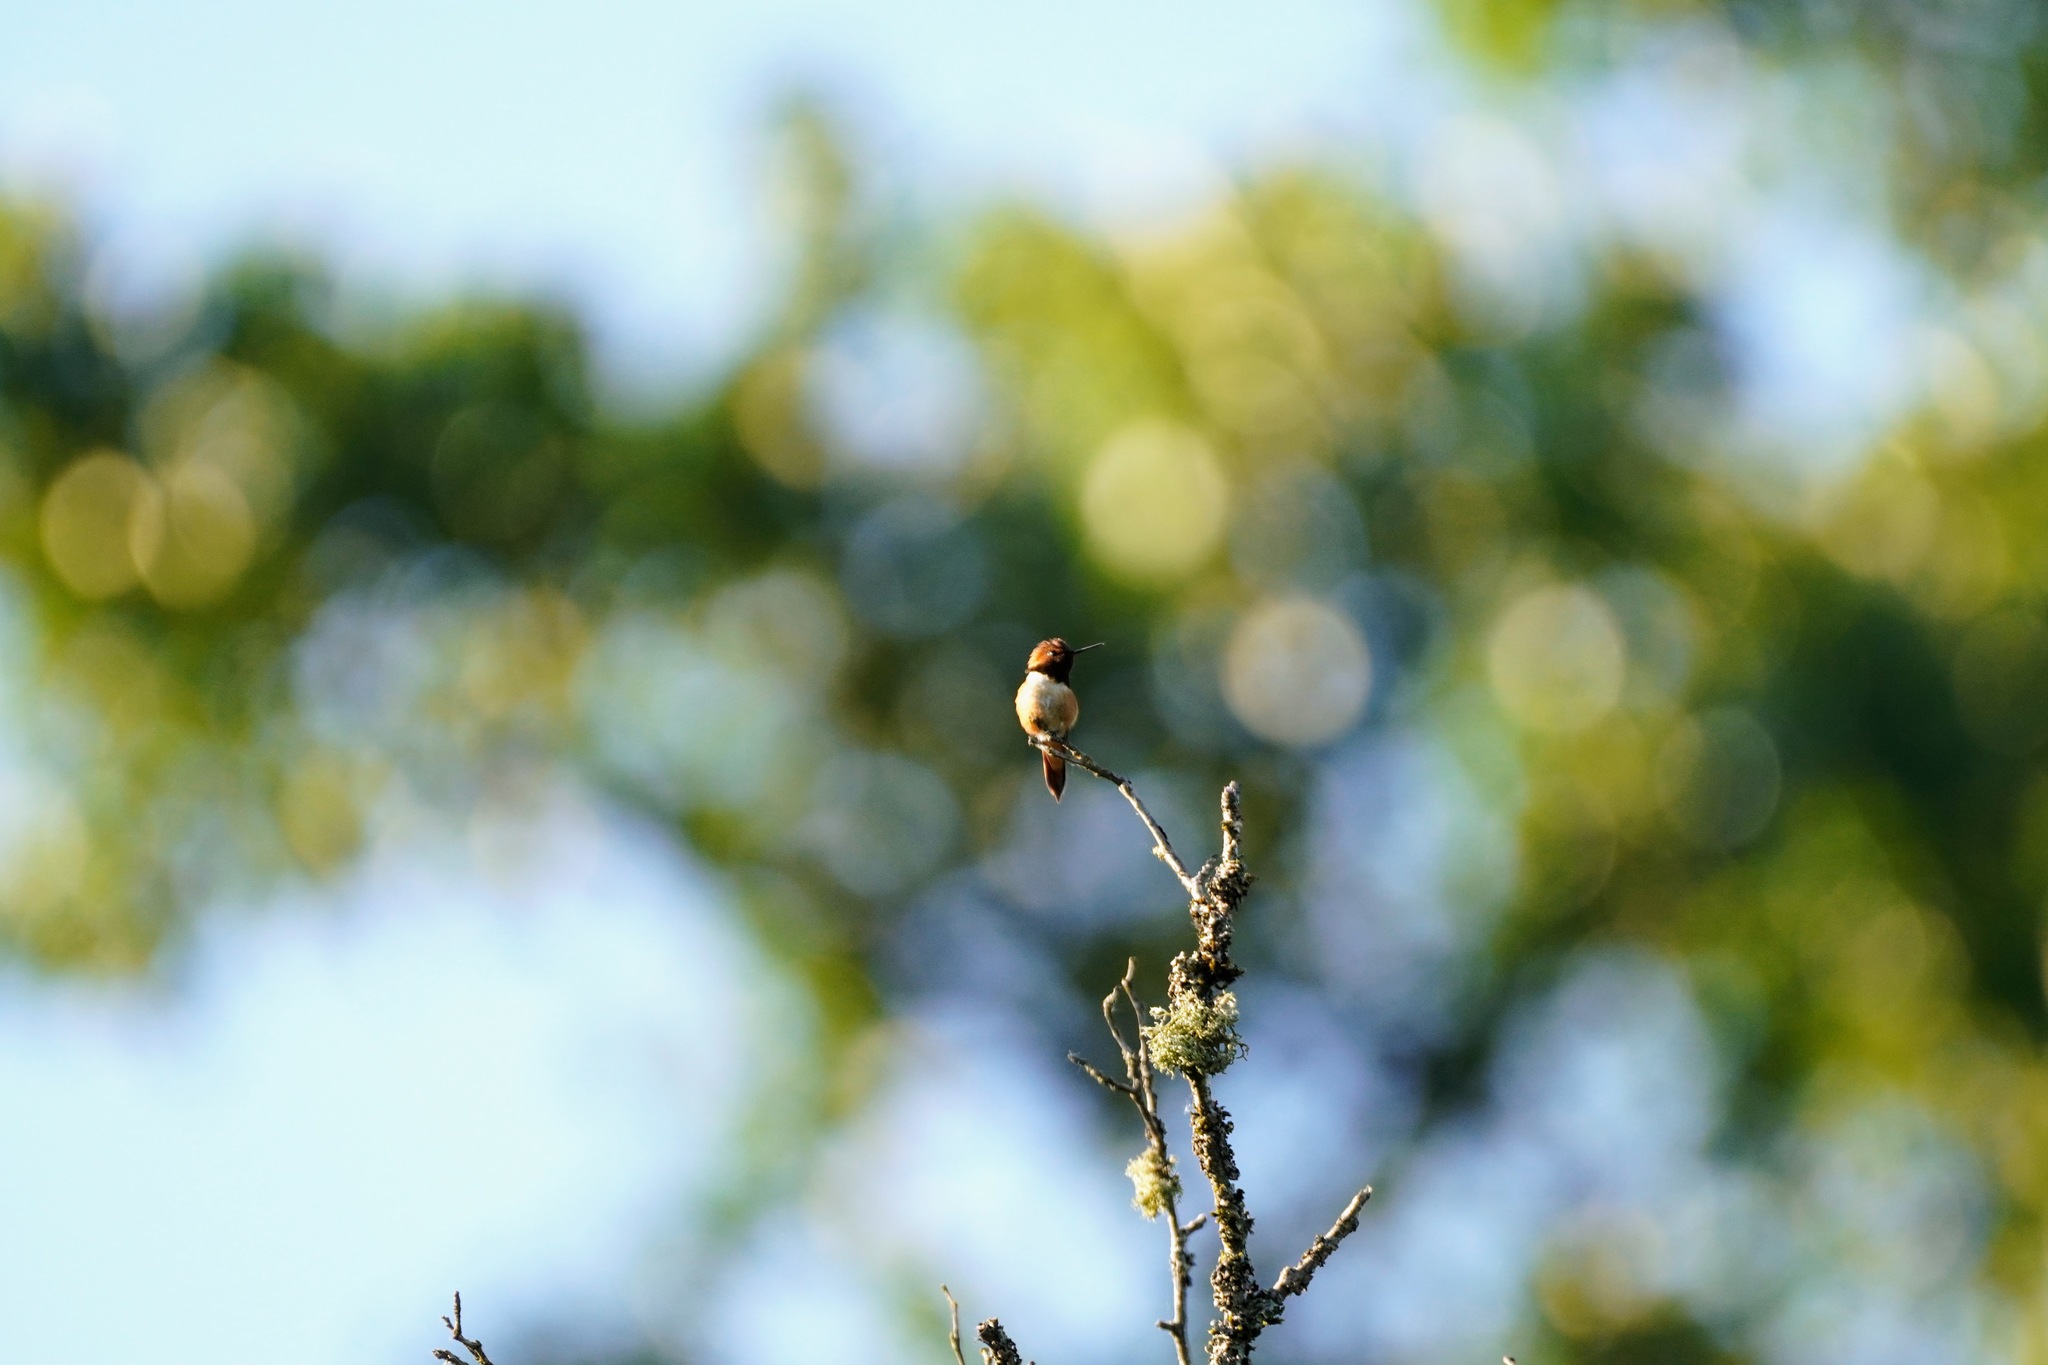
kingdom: Animalia
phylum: Chordata
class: Aves
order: Apodiformes
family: Trochilidae
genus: Selasphorus
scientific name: Selasphorus rufus
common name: Rufous hummingbird
